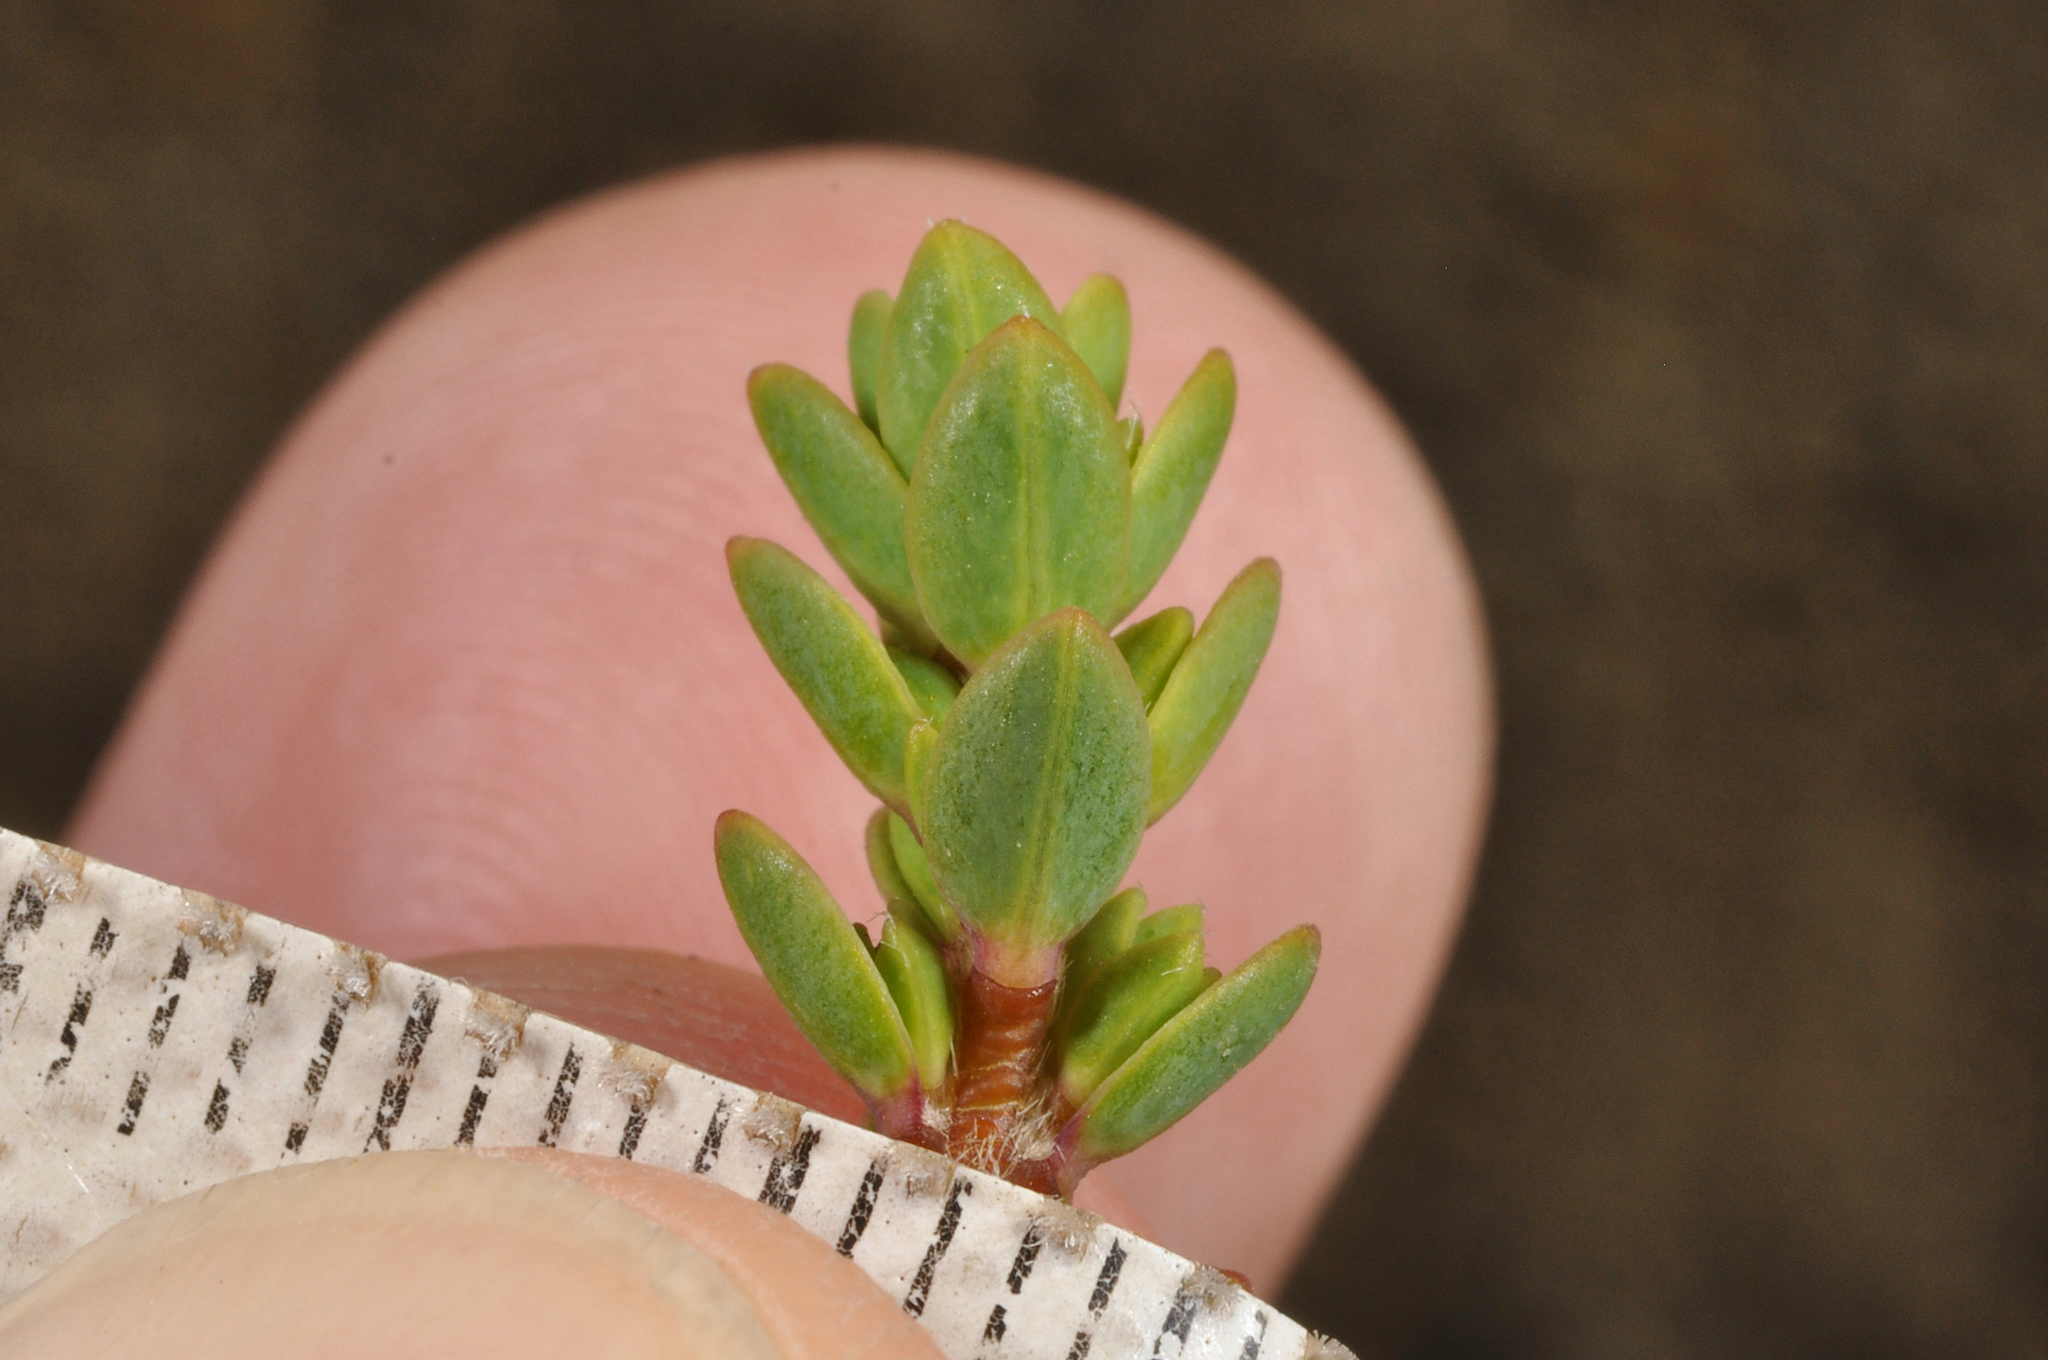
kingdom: Plantae
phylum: Tracheophyta
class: Magnoliopsida
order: Malvales
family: Thymelaeaceae
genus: Pimelea
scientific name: Pimelea microphylla
